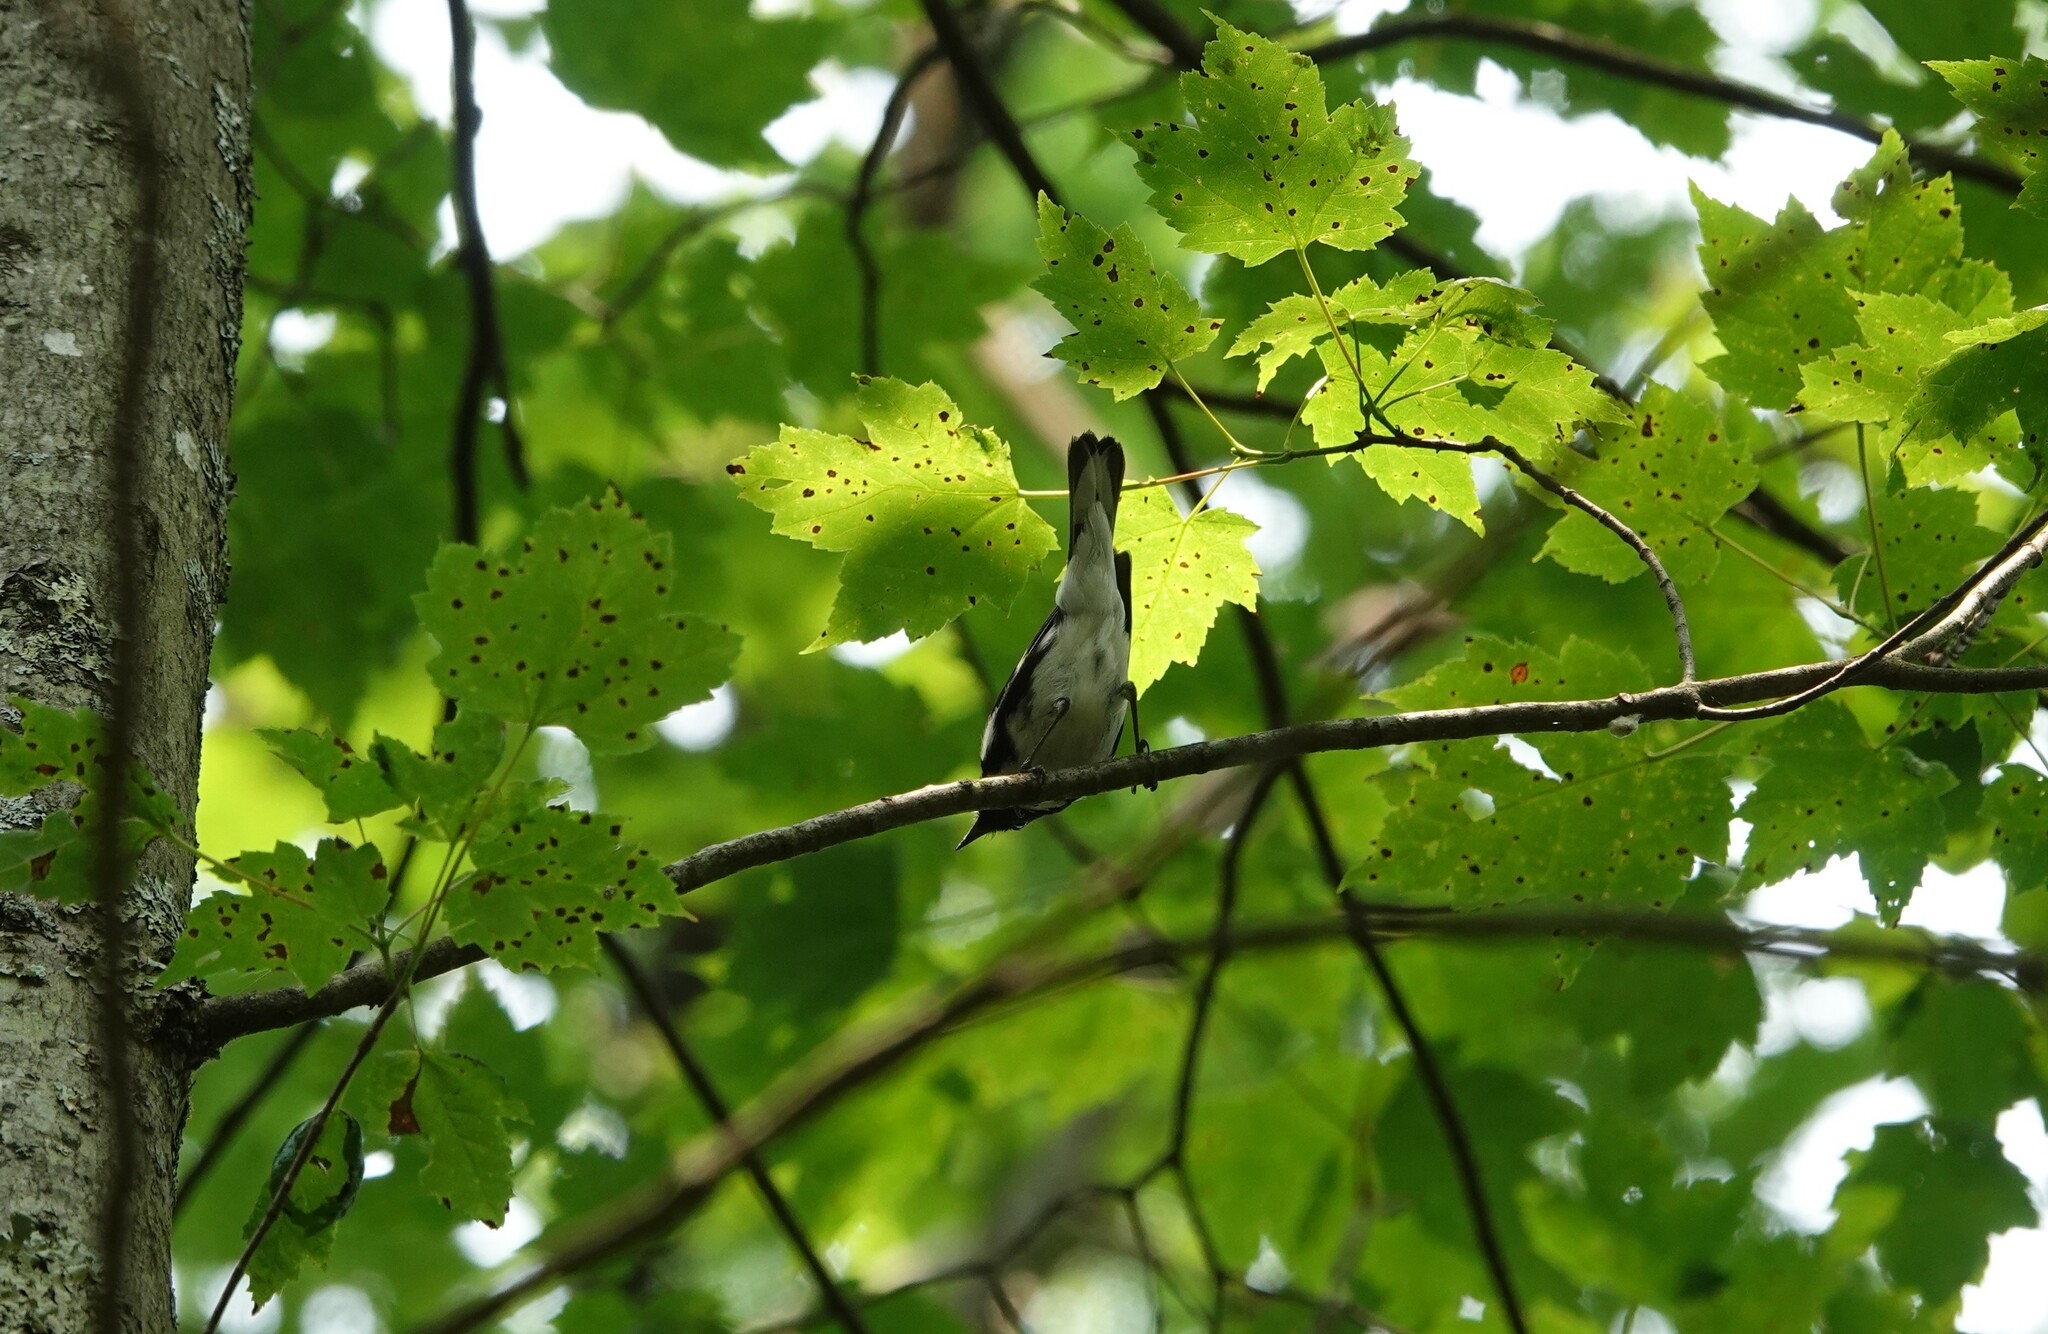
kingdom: Animalia
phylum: Chordata
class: Aves
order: Passeriformes
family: Parulidae
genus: Setophaga
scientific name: Setophaga caerulescens
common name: Black-throated blue warbler
